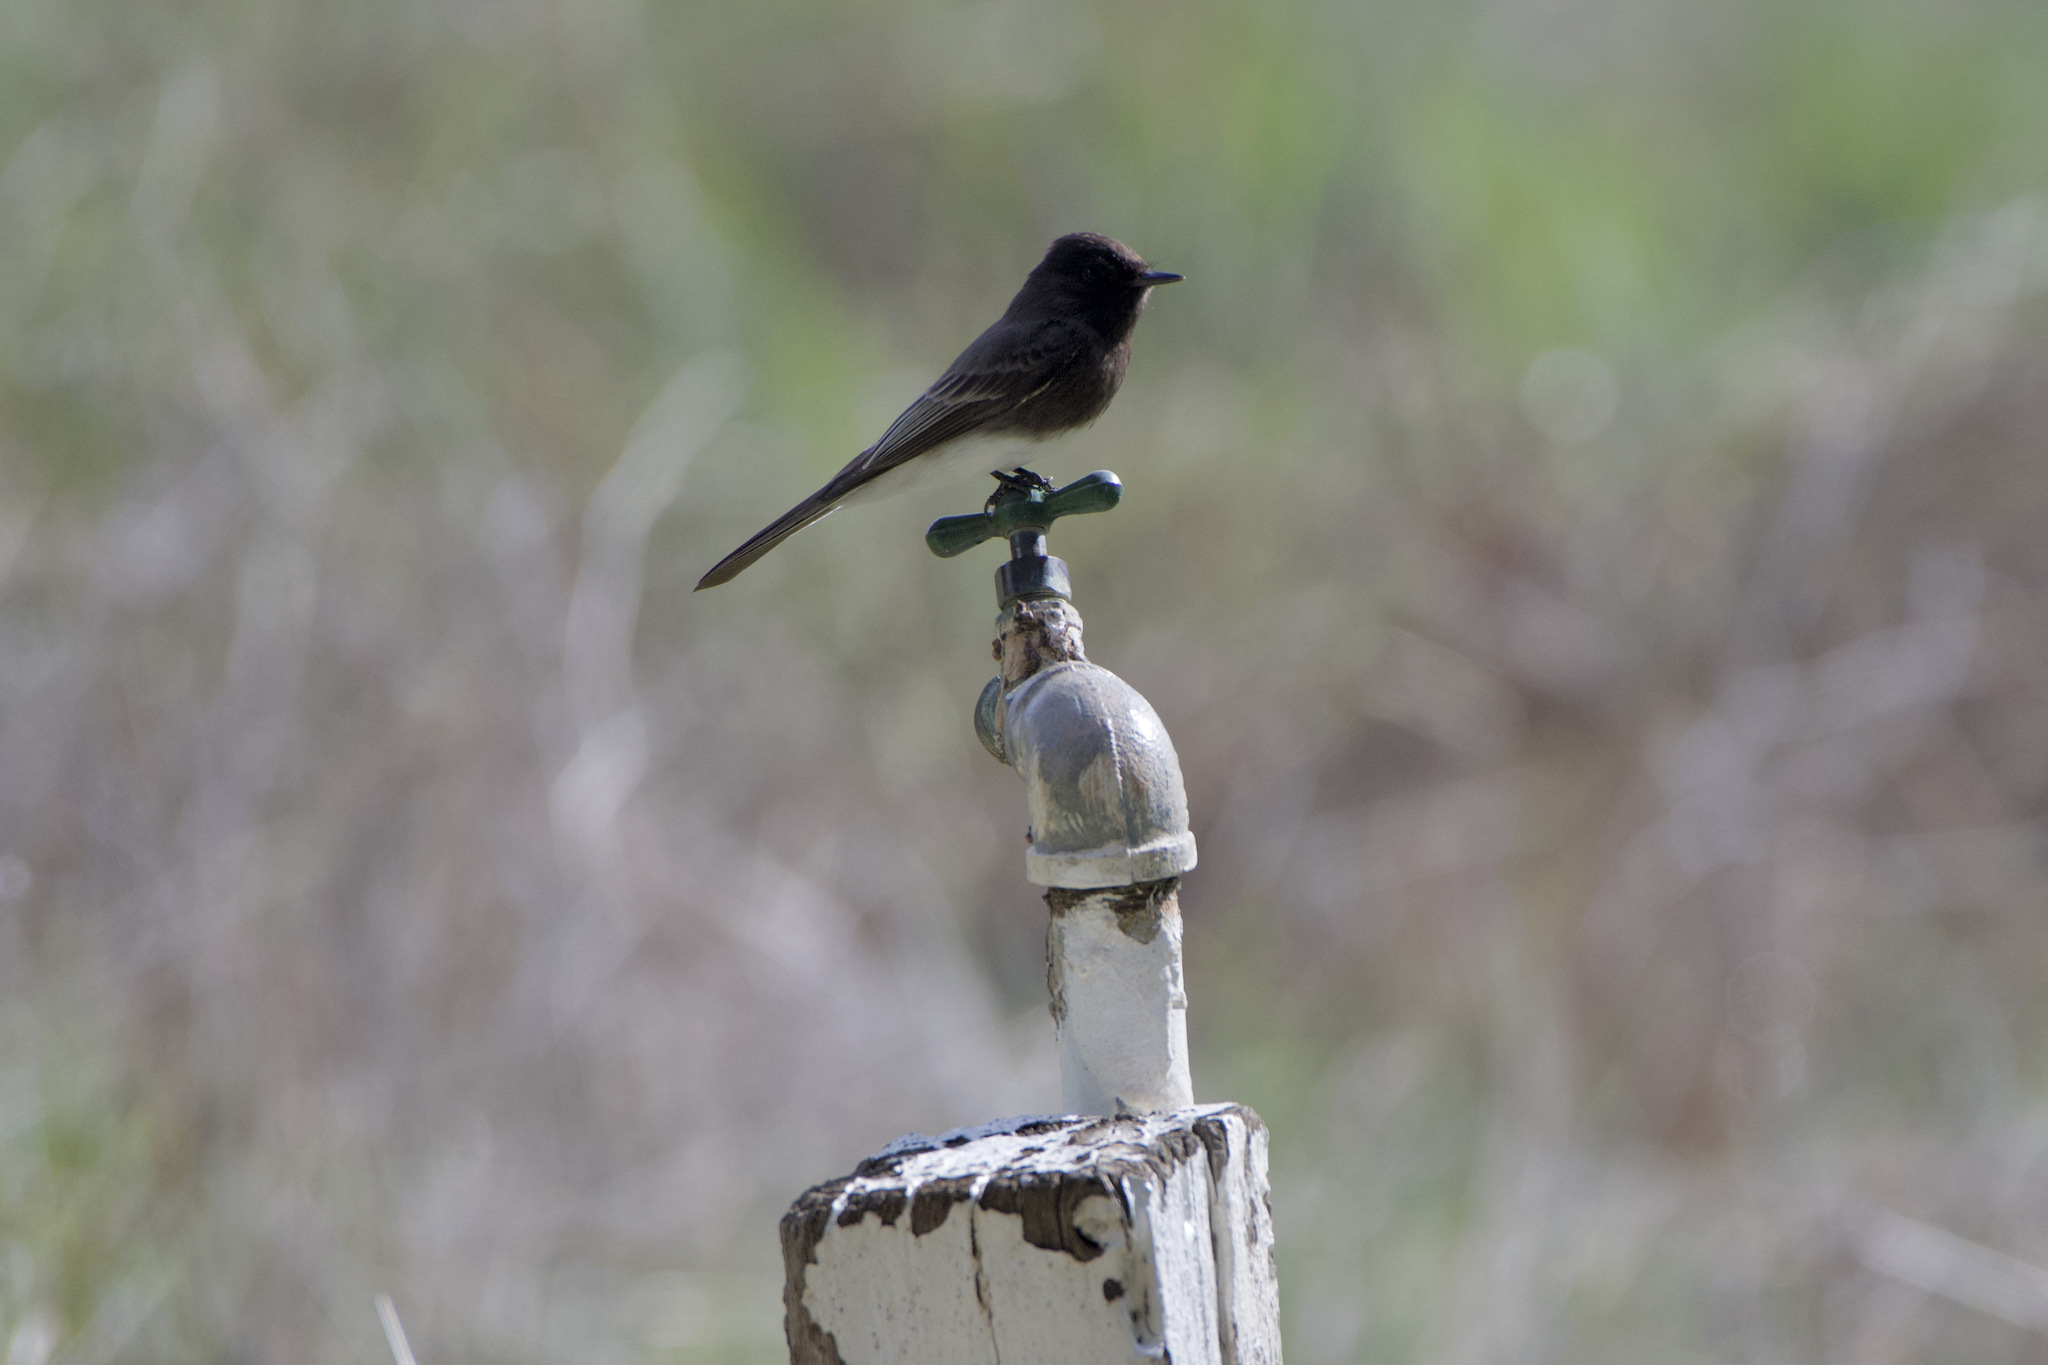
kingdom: Animalia
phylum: Chordata
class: Aves
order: Passeriformes
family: Tyrannidae
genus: Sayornis
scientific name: Sayornis nigricans
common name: Black phoebe
